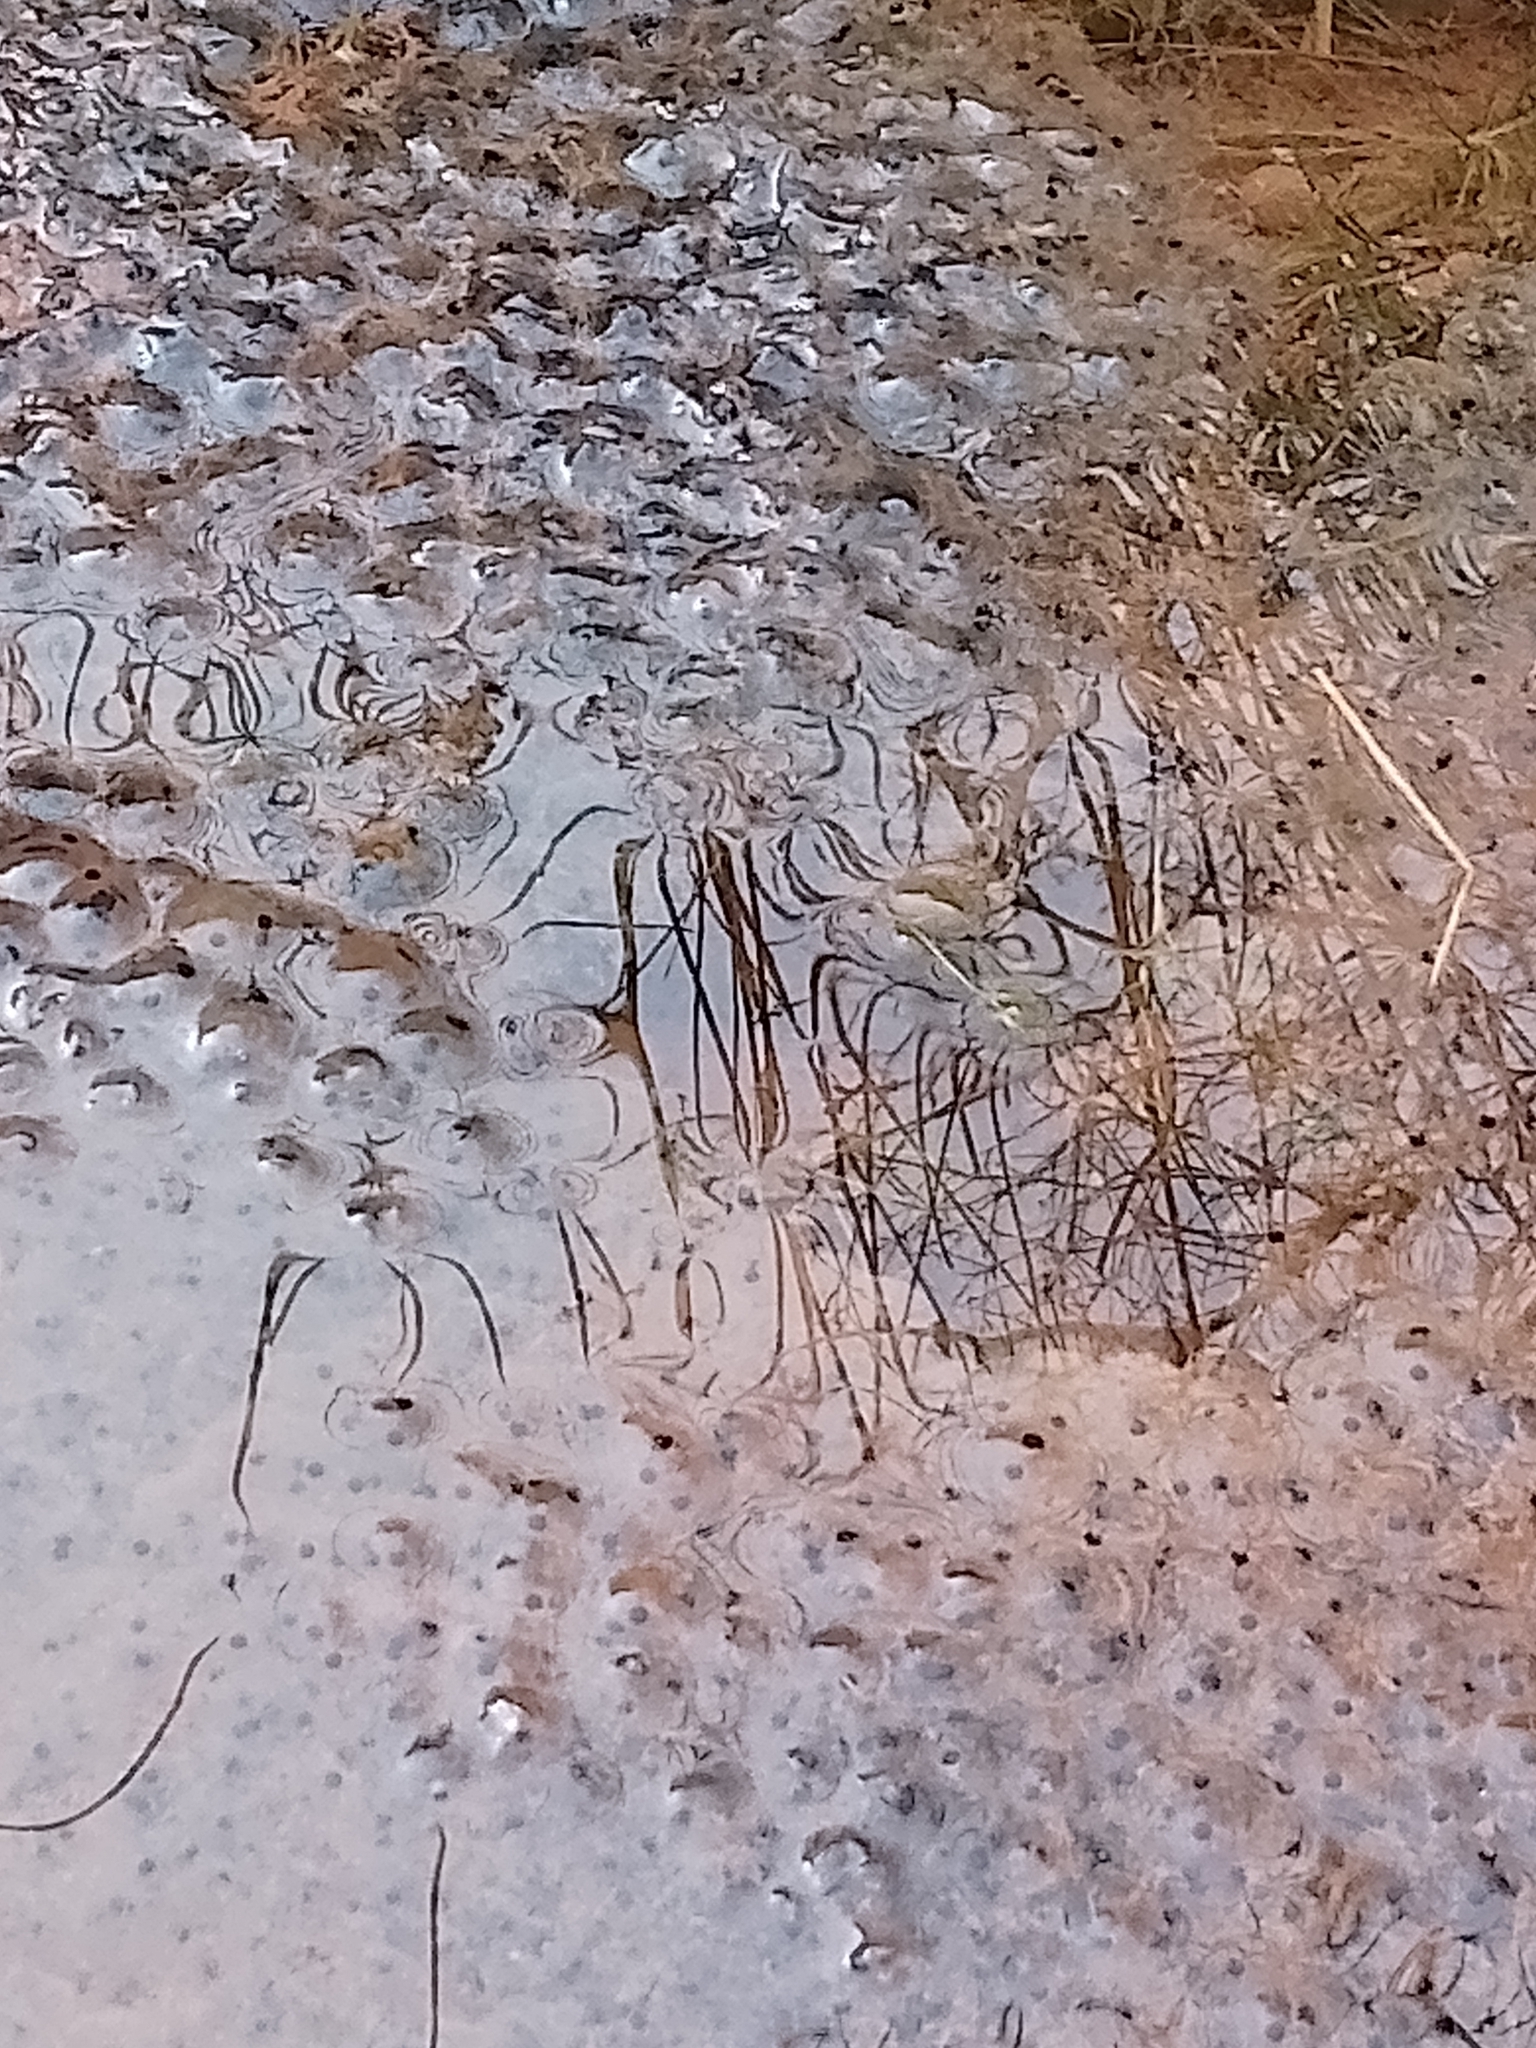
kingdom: Animalia
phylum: Chordata
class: Amphibia
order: Anura
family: Ranidae
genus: Rana
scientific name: Rana temporaria
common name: Common frog
